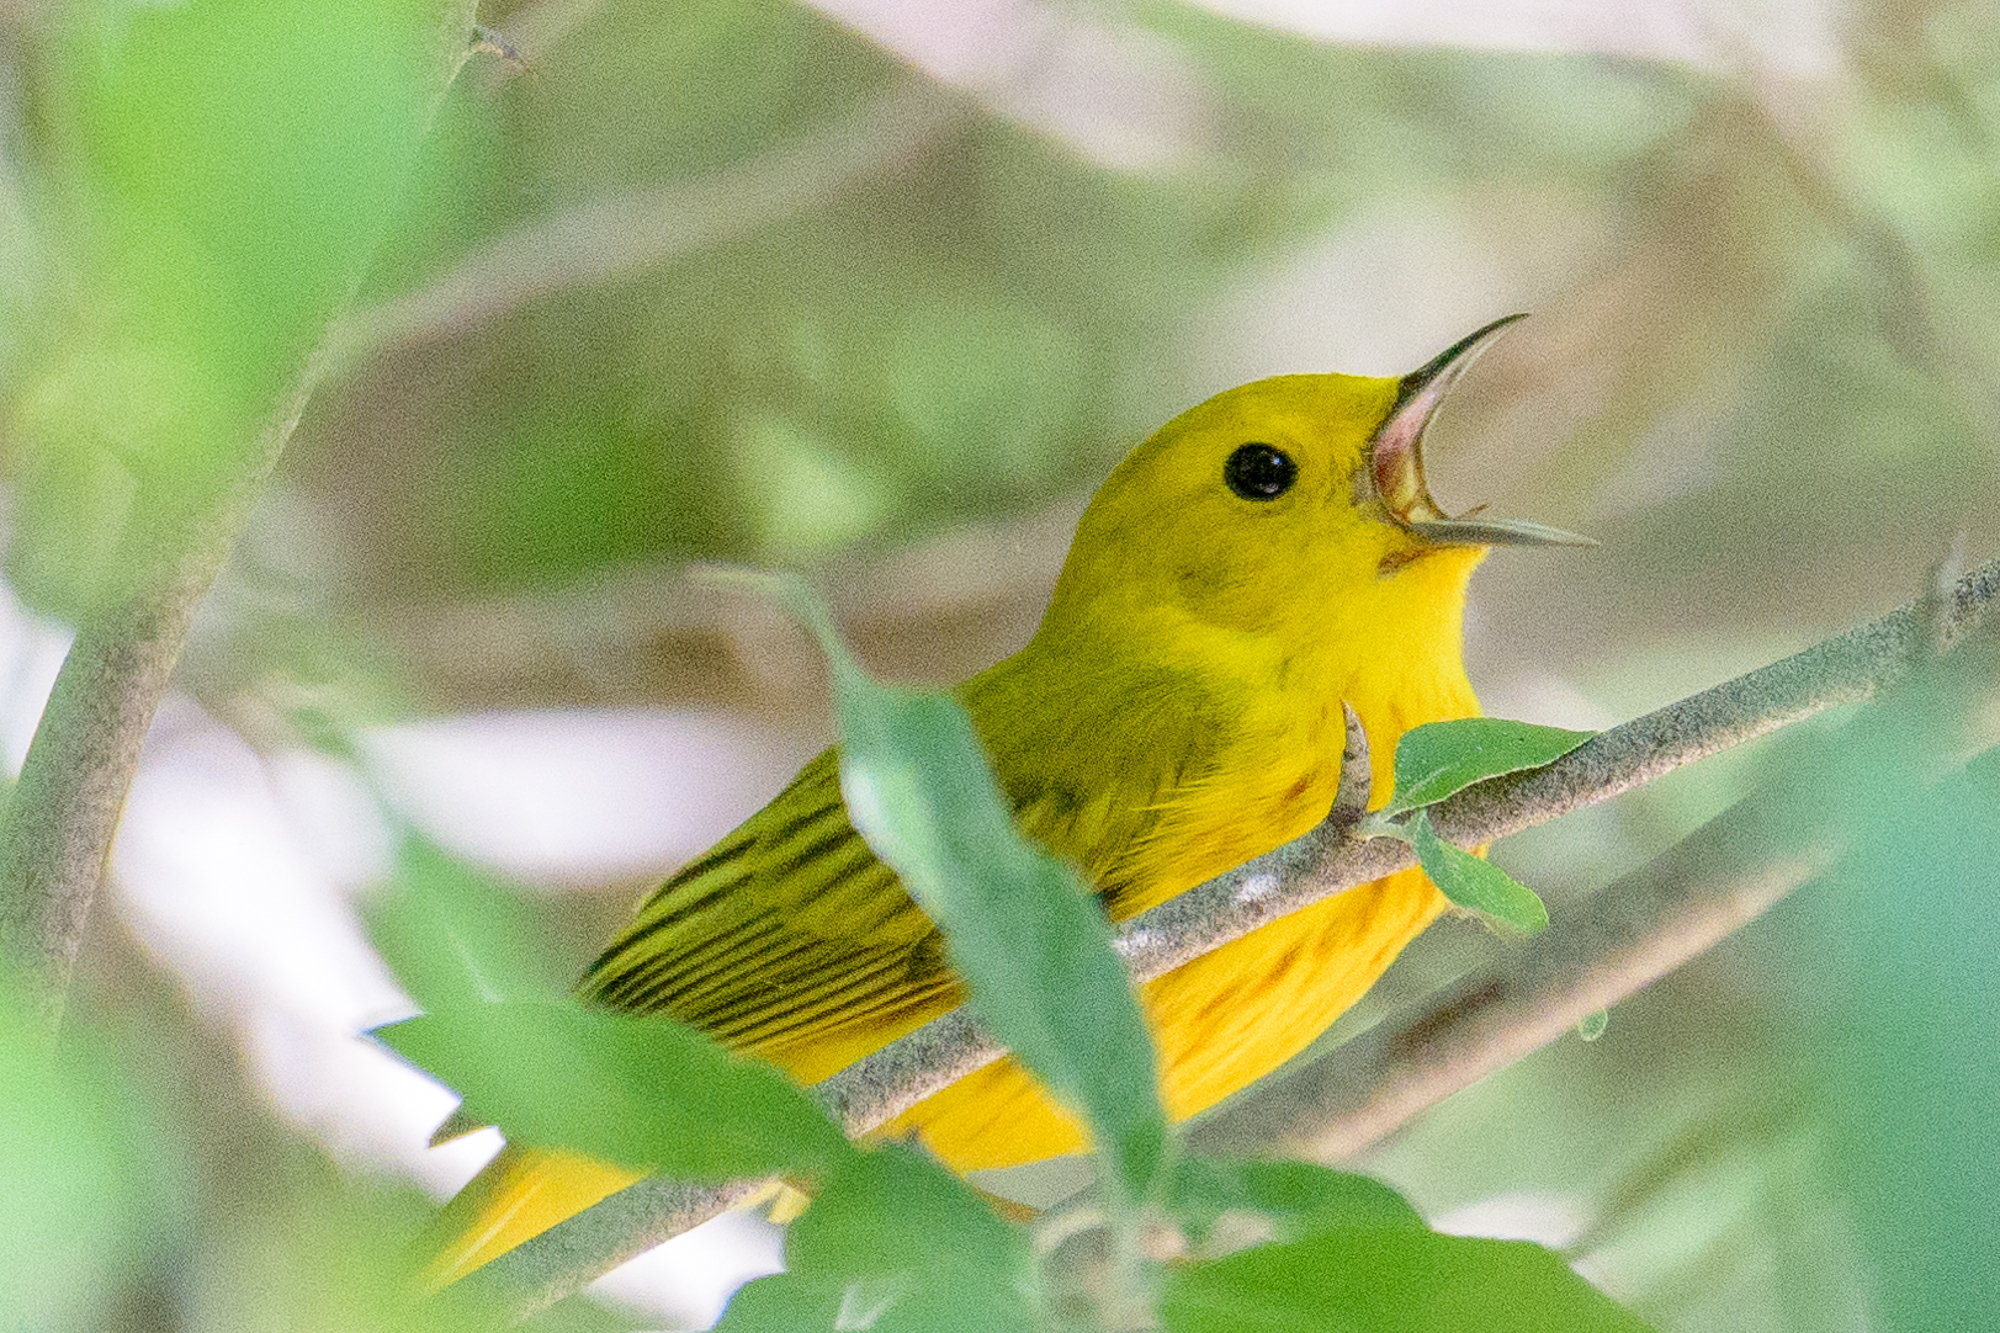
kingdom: Animalia
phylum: Chordata
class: Aves
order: Passeriformes
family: Parulidae
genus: Setophaga
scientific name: Setophaga petechia
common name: Yellow warbler
